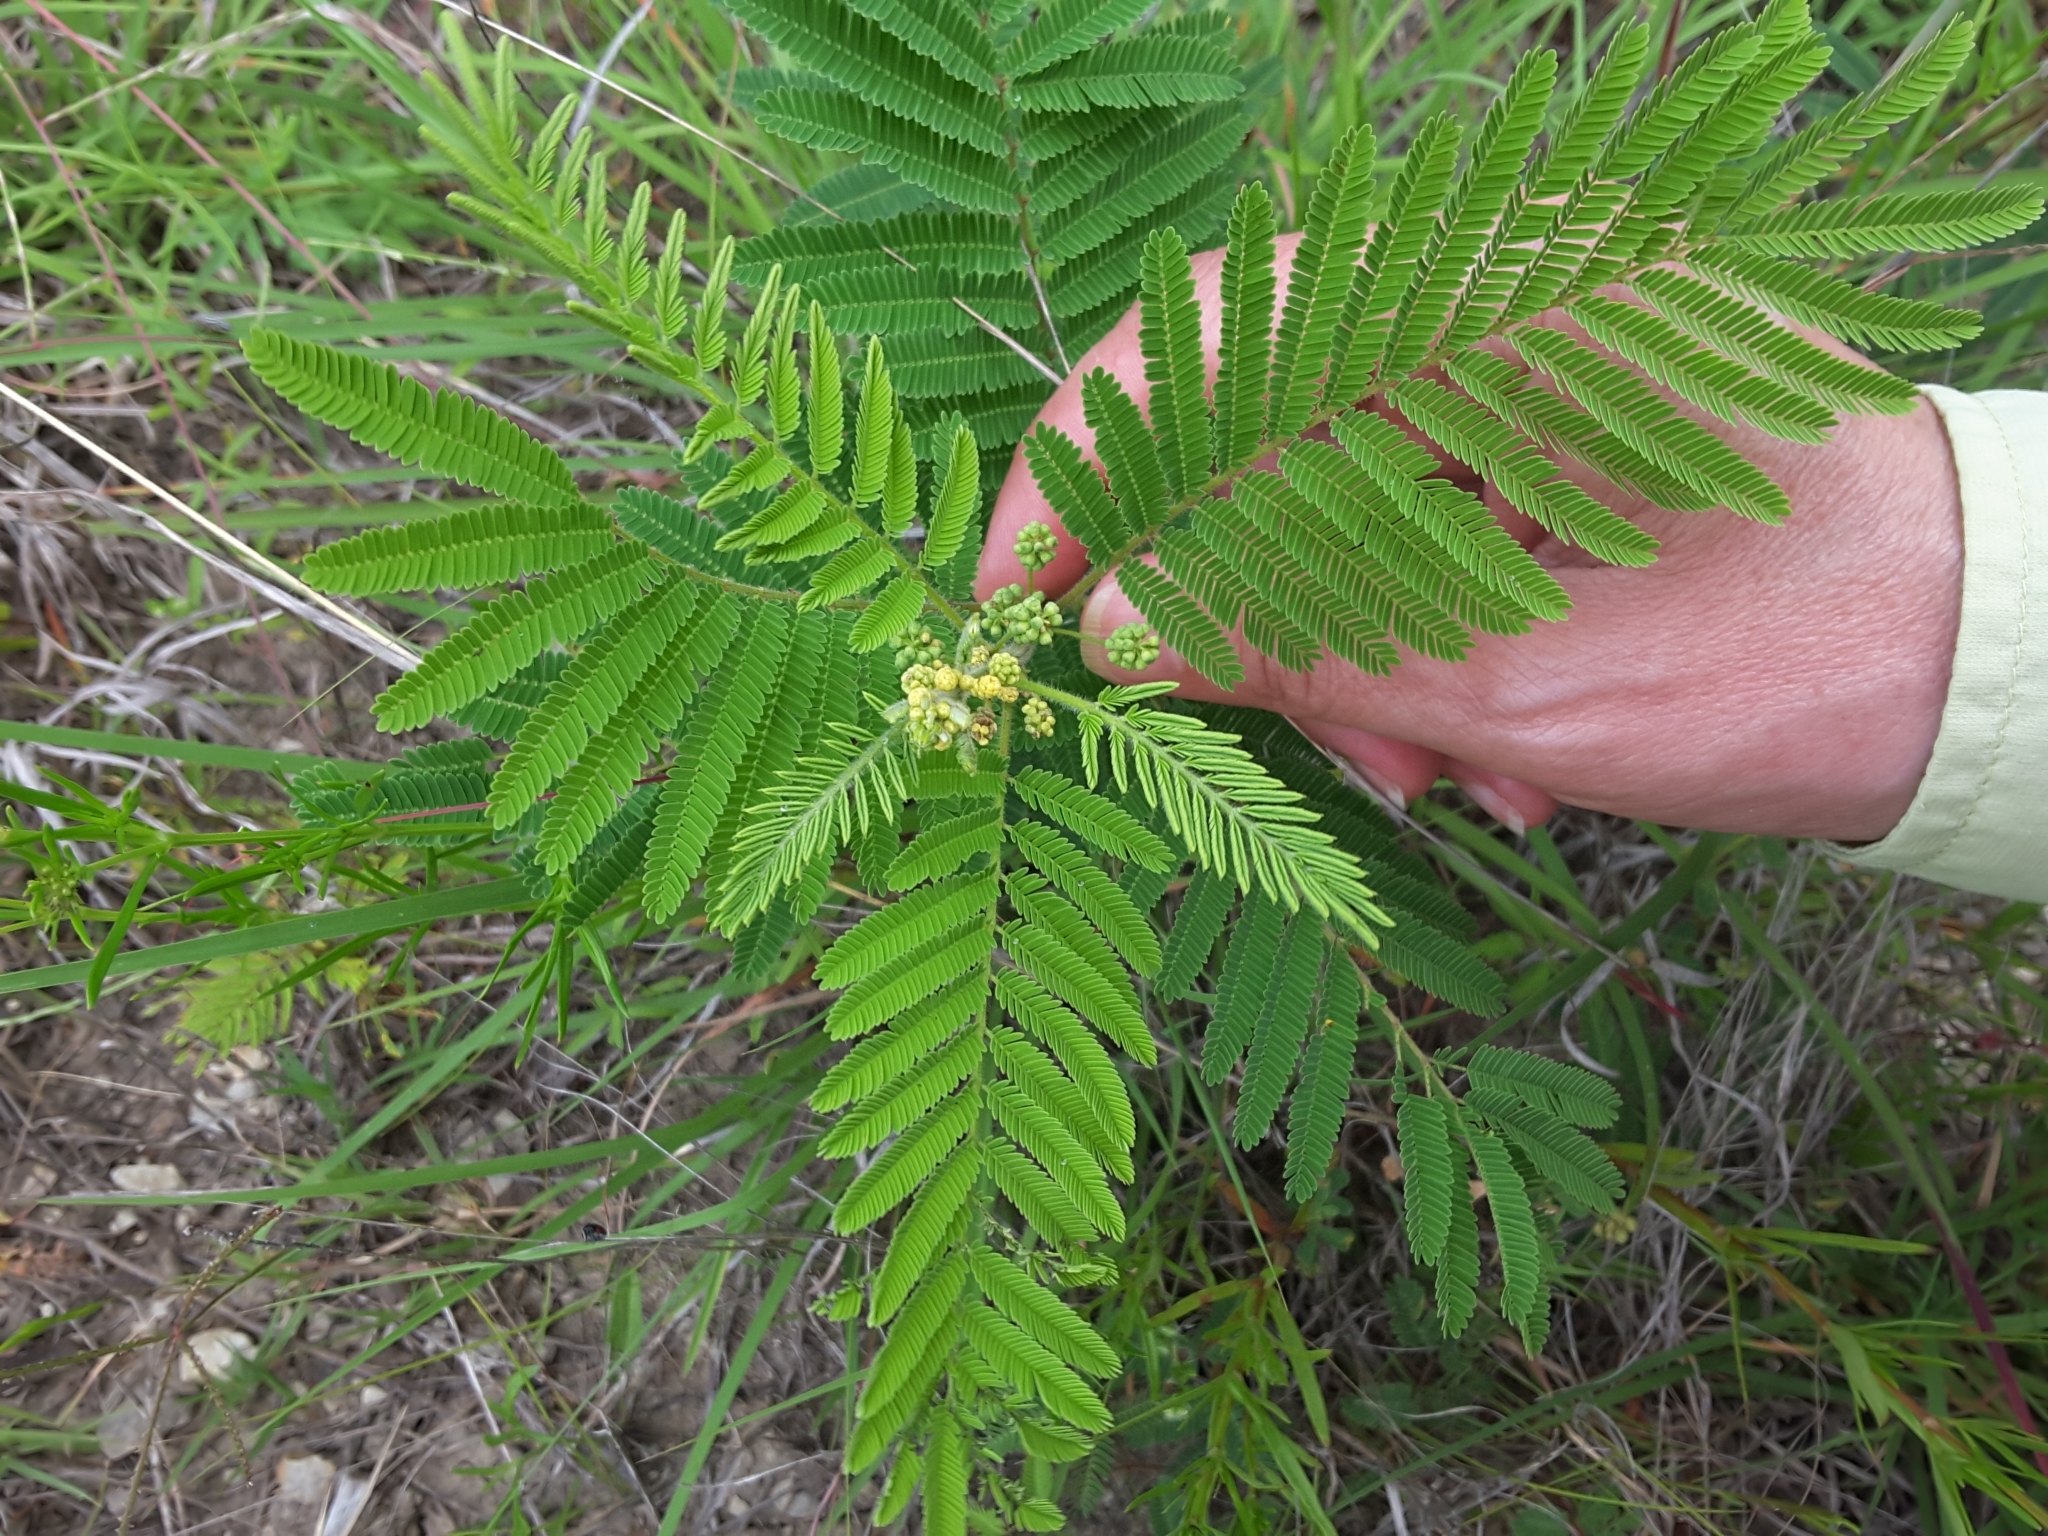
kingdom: Plantae
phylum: Tracheophyta
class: Magnoliopsida
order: Fabales
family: Fabaceae
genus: Desmanthus
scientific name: Desmanthus illinoensis
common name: Illinois bundle-flower
